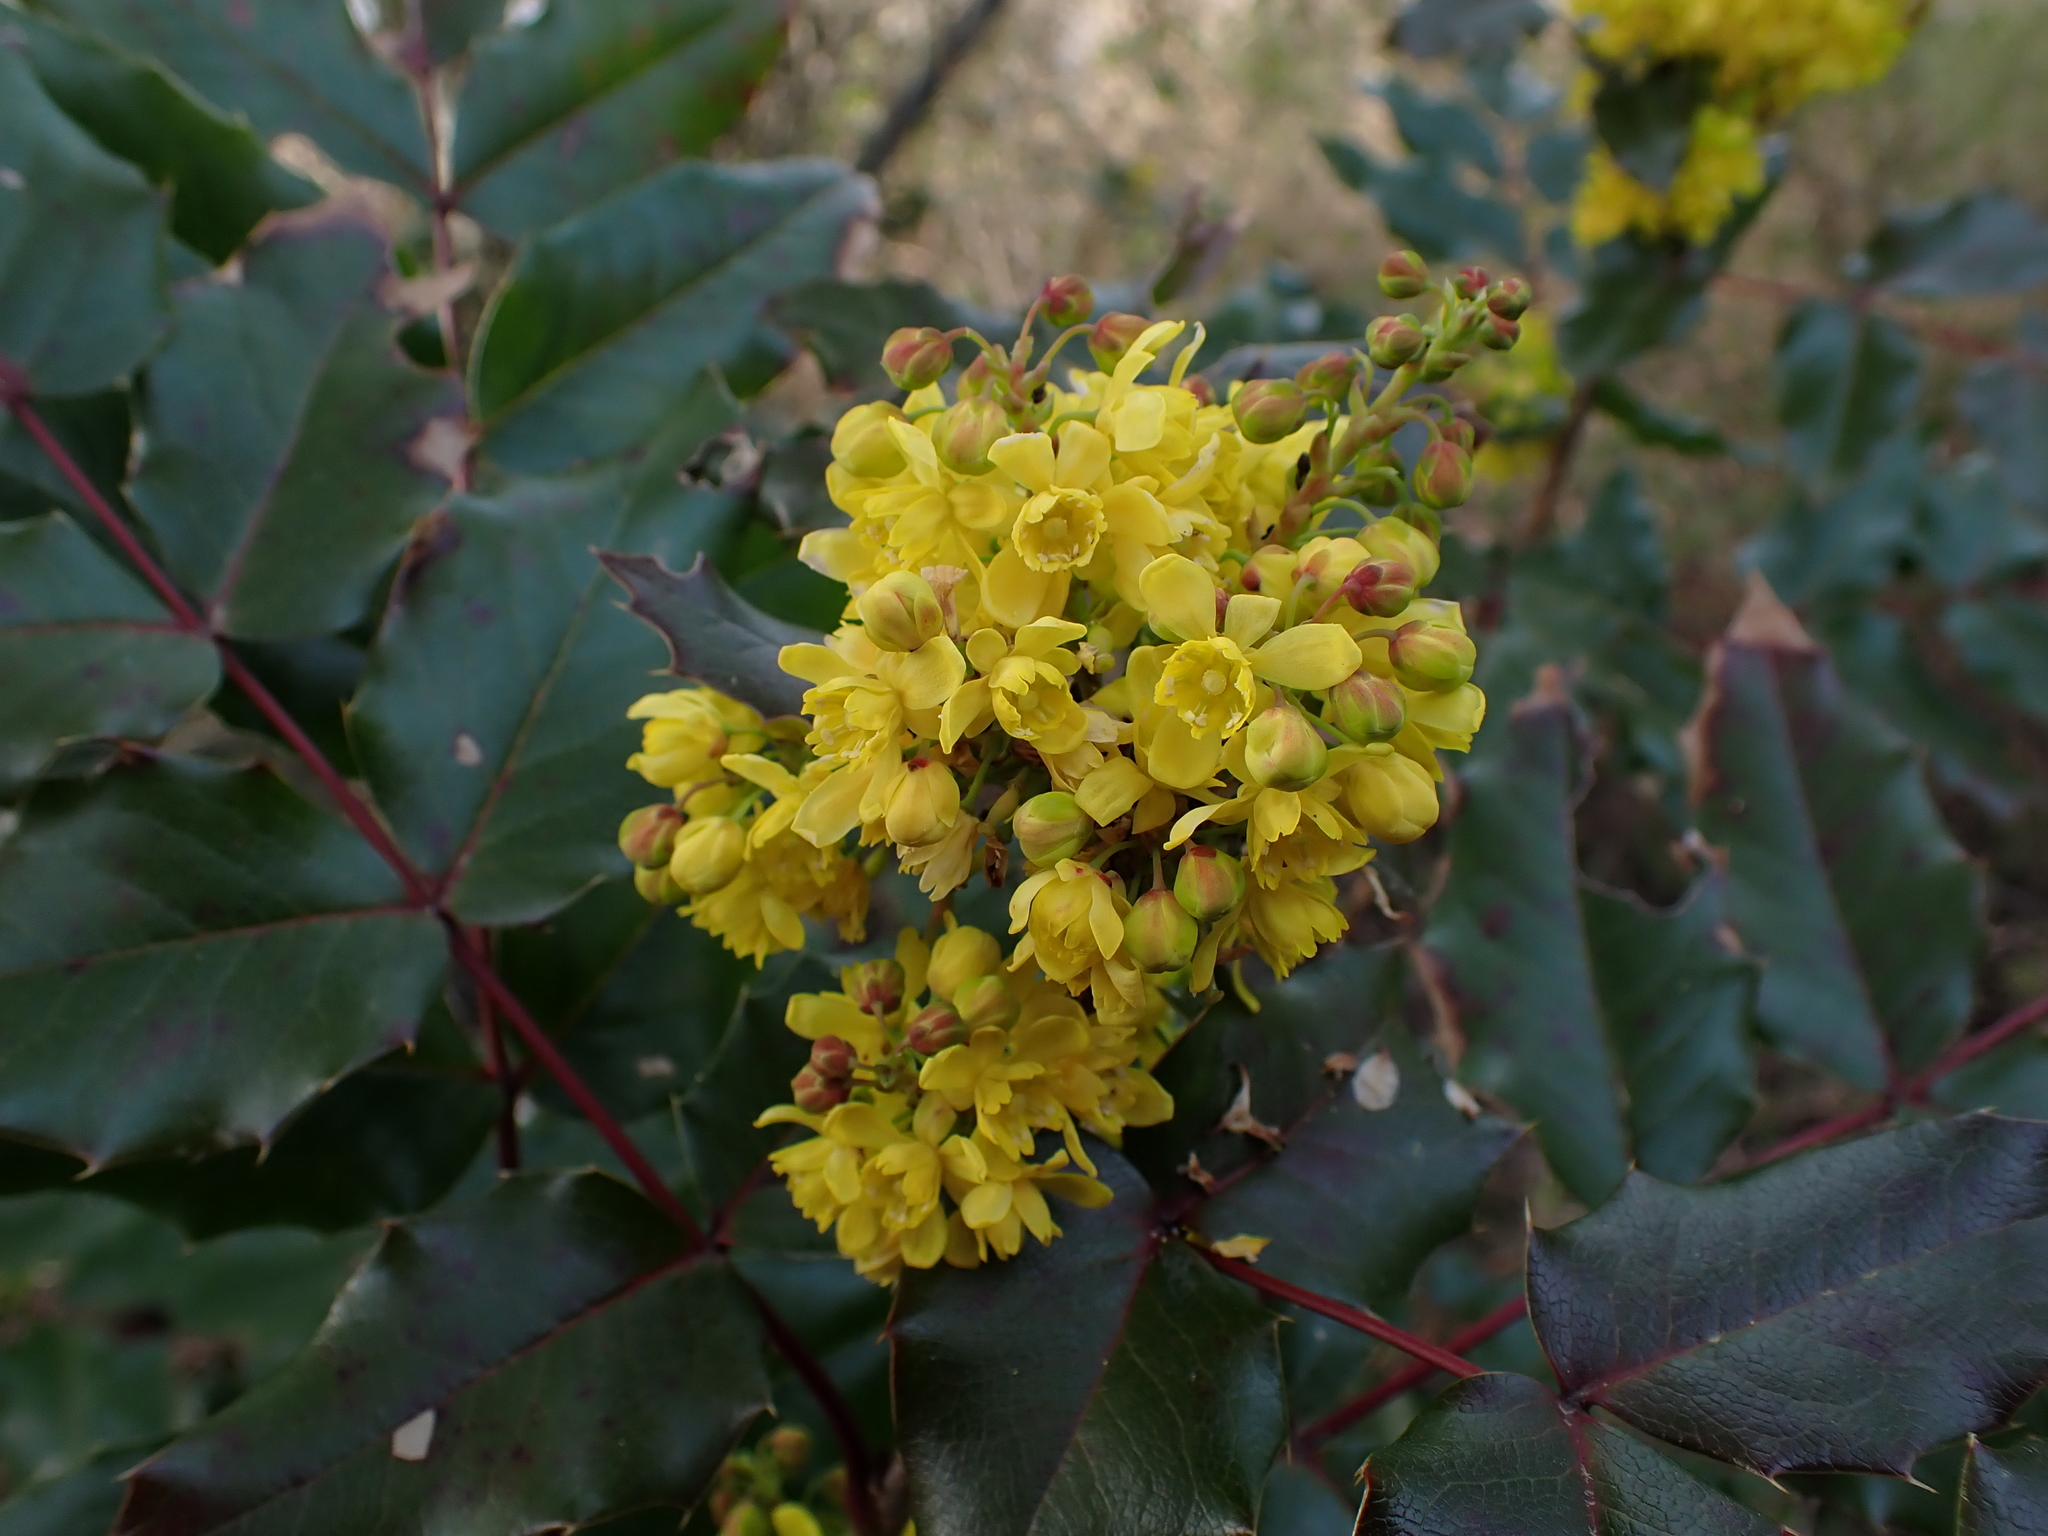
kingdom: Plantae
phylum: Tracheophyta
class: Magnoliopsida
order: Ranunculales
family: Berberidaceae
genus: Mahonia
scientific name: Mahonia aquifolium
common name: Oregon-grape
